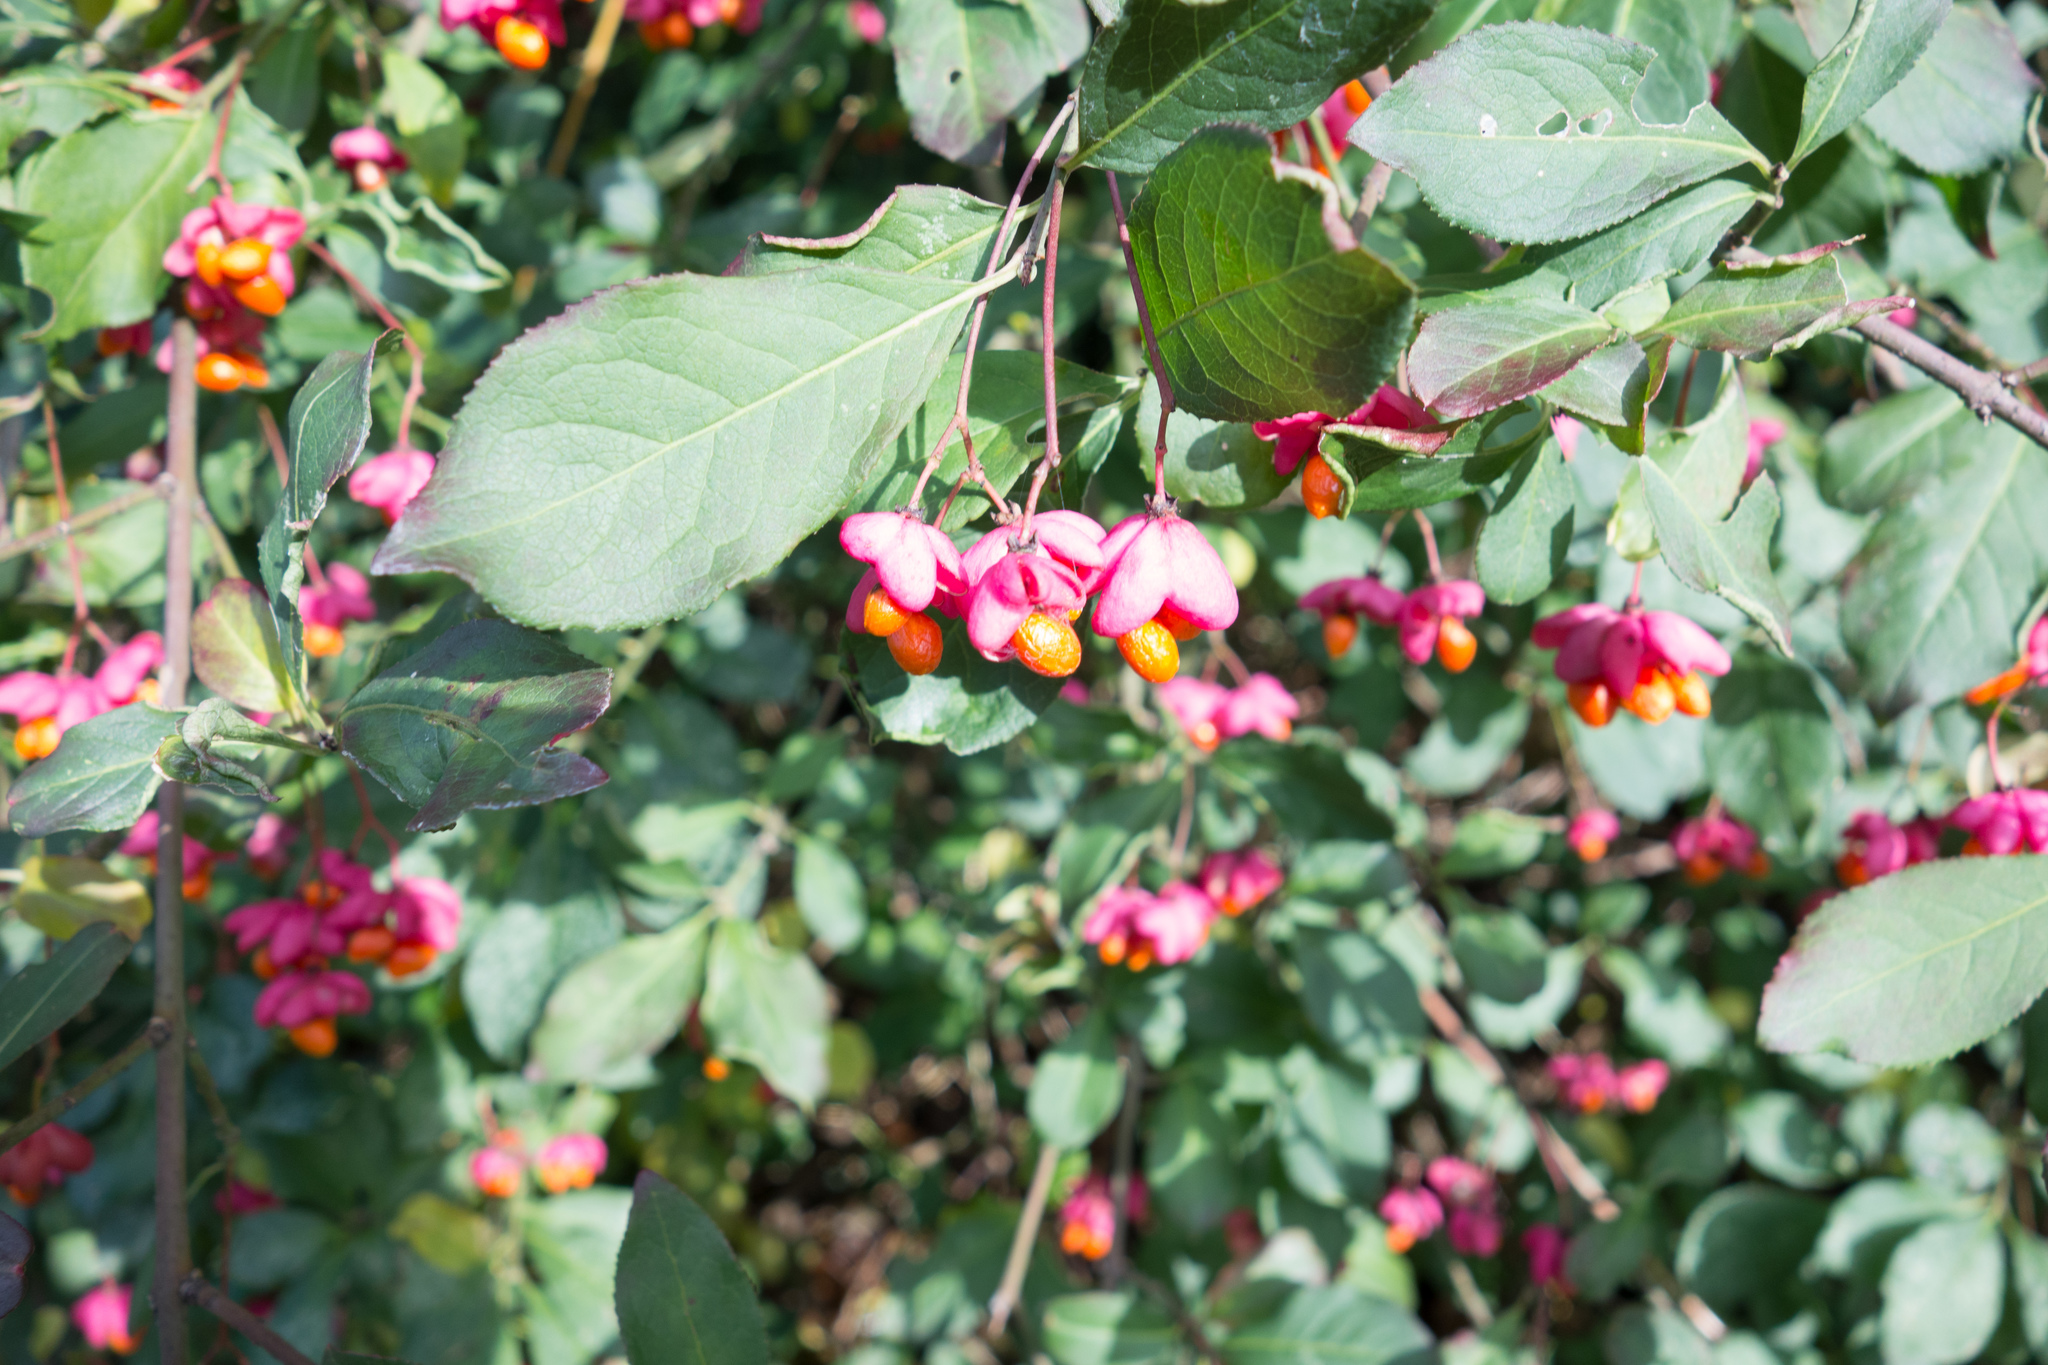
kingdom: Plantae
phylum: Tracheophyta
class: Magnoliopsida
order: Celastrales
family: Celastraceae
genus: Euonymus
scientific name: Euonymus europaeus
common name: Spindle
